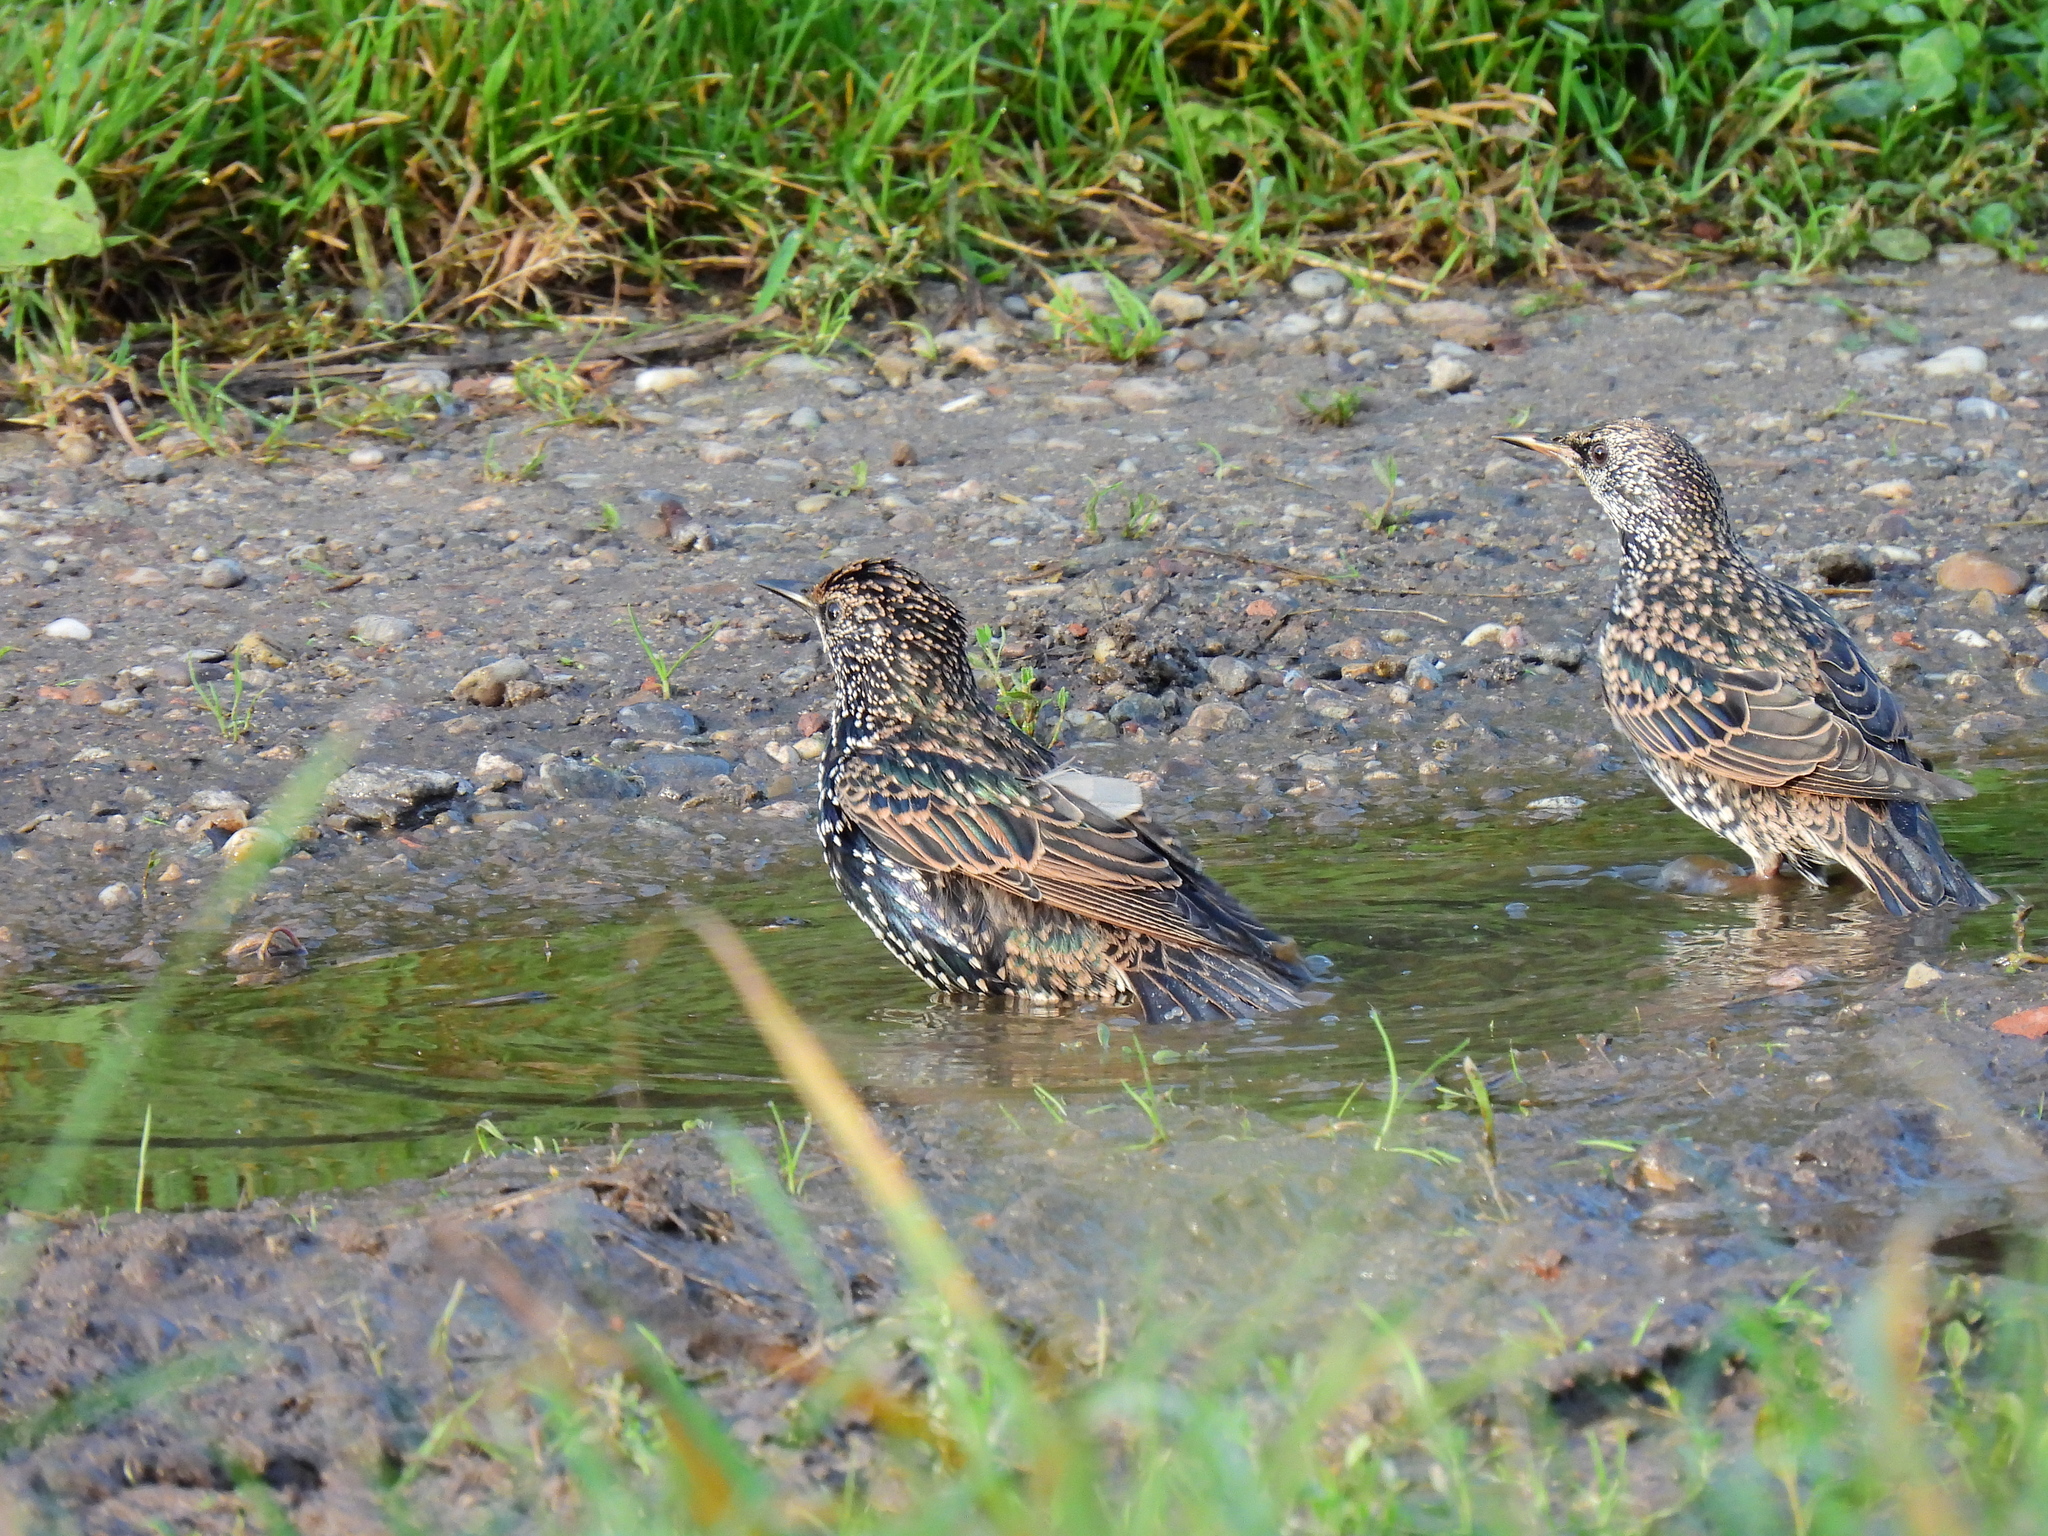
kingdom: Animalia
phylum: Chordata
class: Aves
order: Passeriformes
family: Sturnidae
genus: Sturnus
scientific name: Sturnus vulgaris
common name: Common starling
